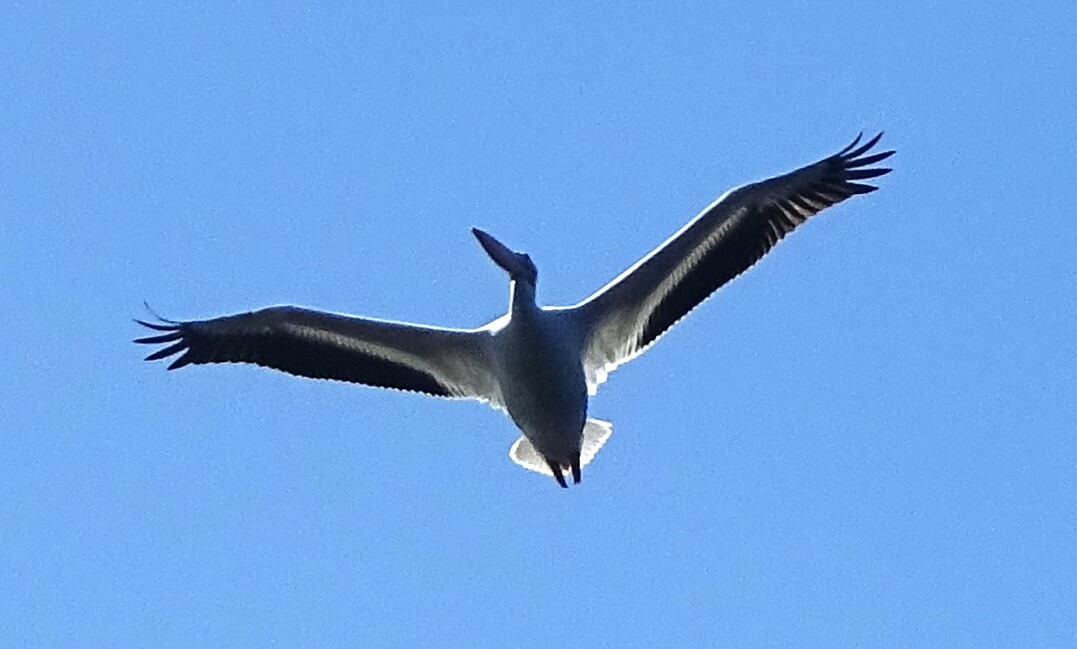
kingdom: Animalia
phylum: Chordata
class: Aves
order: Pelecaniformes
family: Pelecanidae
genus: Pelecanus
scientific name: Pelecanus erythrorhynchos
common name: American white pelican
